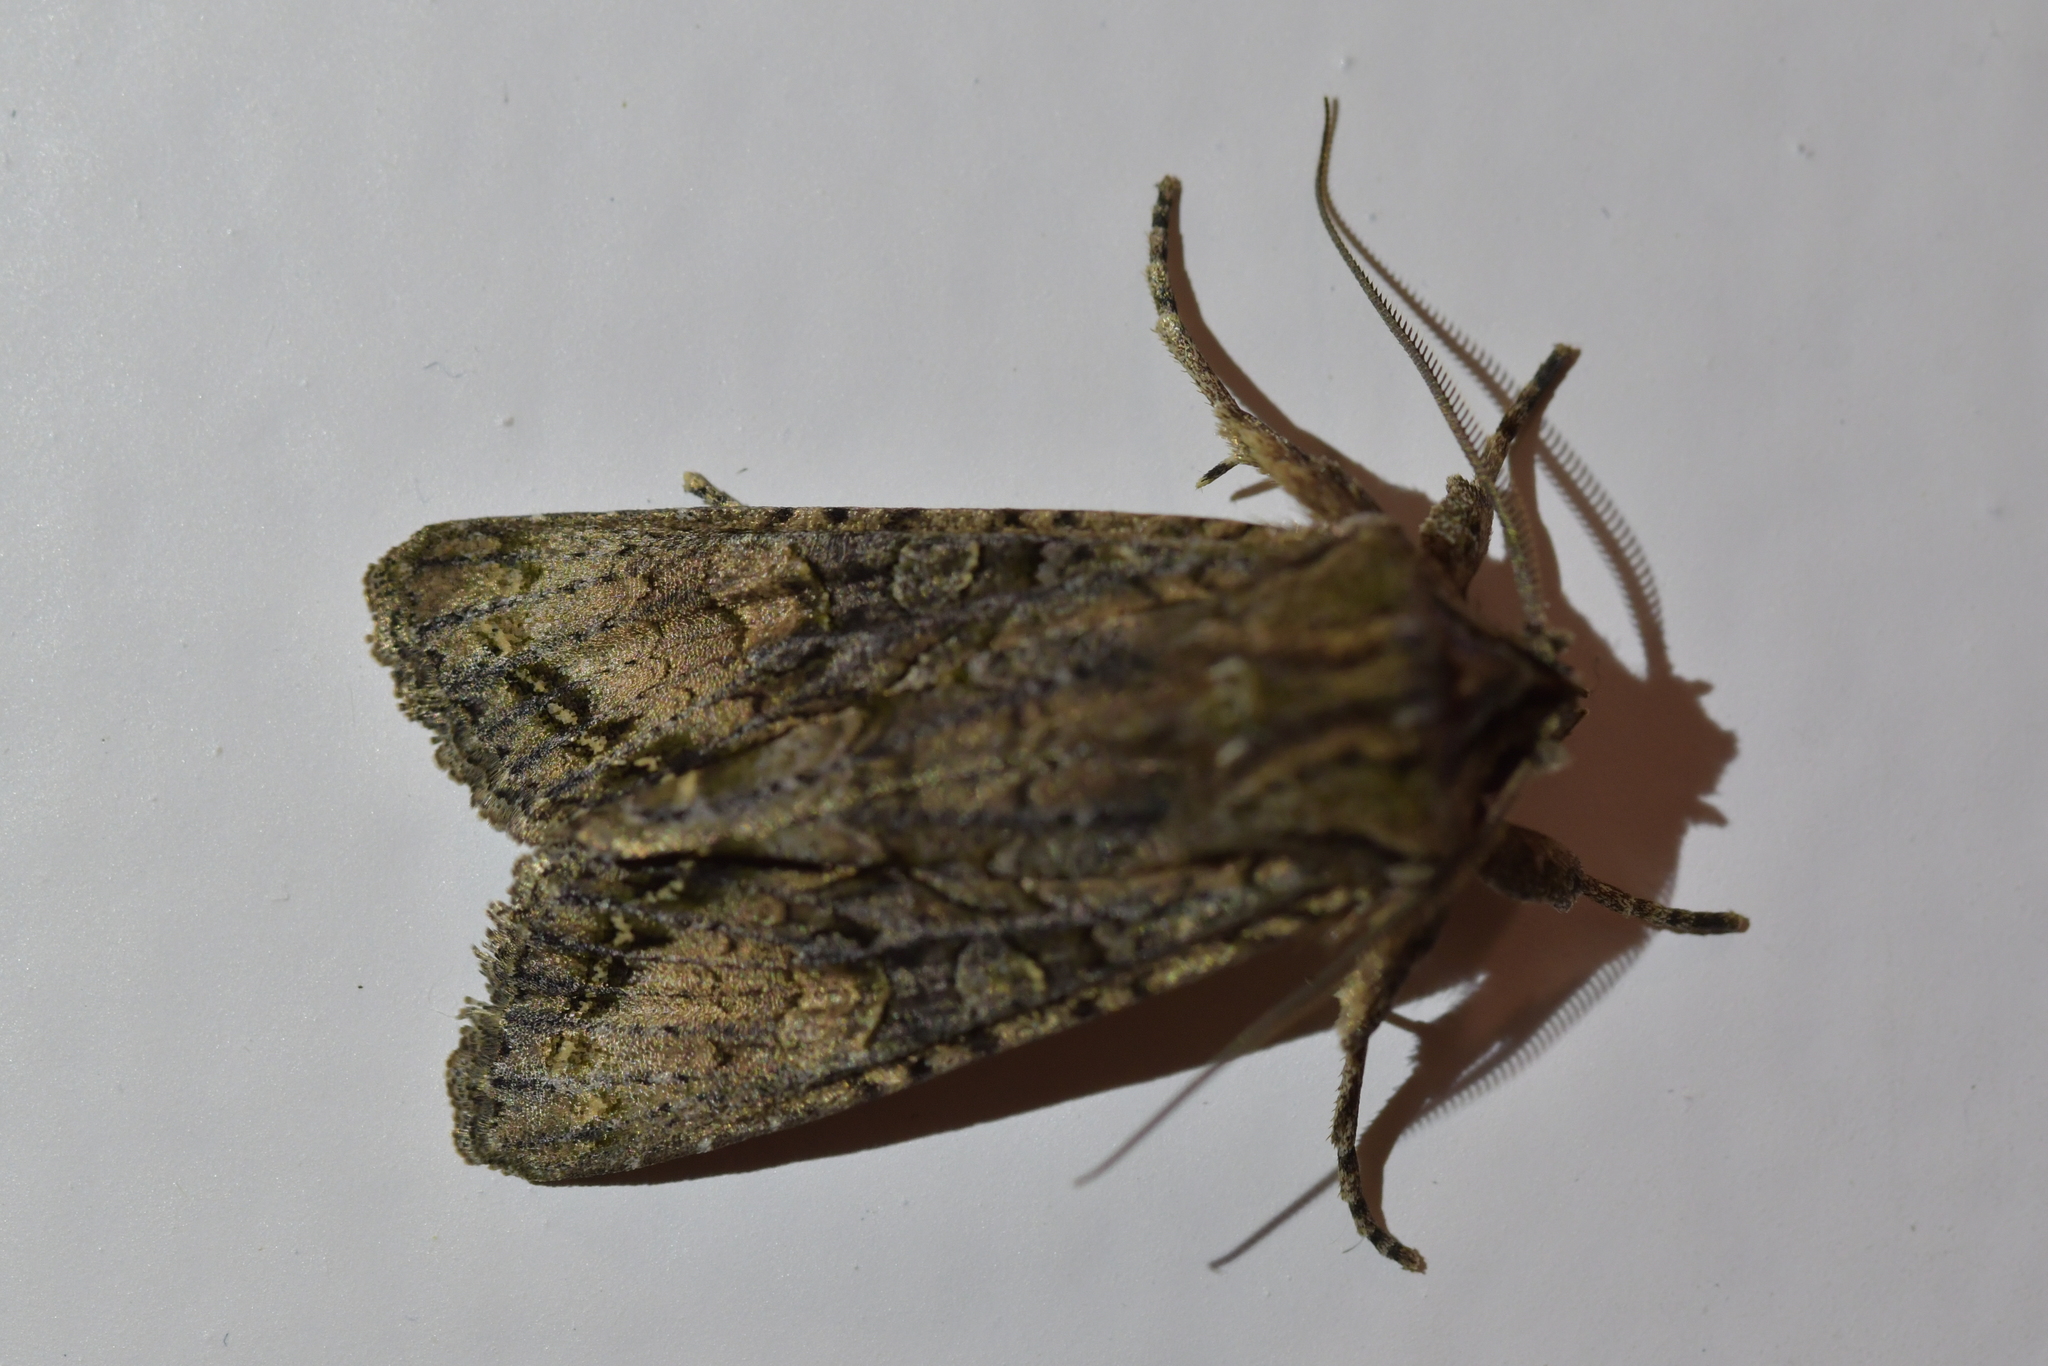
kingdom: Animalia
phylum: Arthropoda
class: Insecta
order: Lepidoptera
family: Noctuidae
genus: Ichneutica
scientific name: Ichneutica mutans
